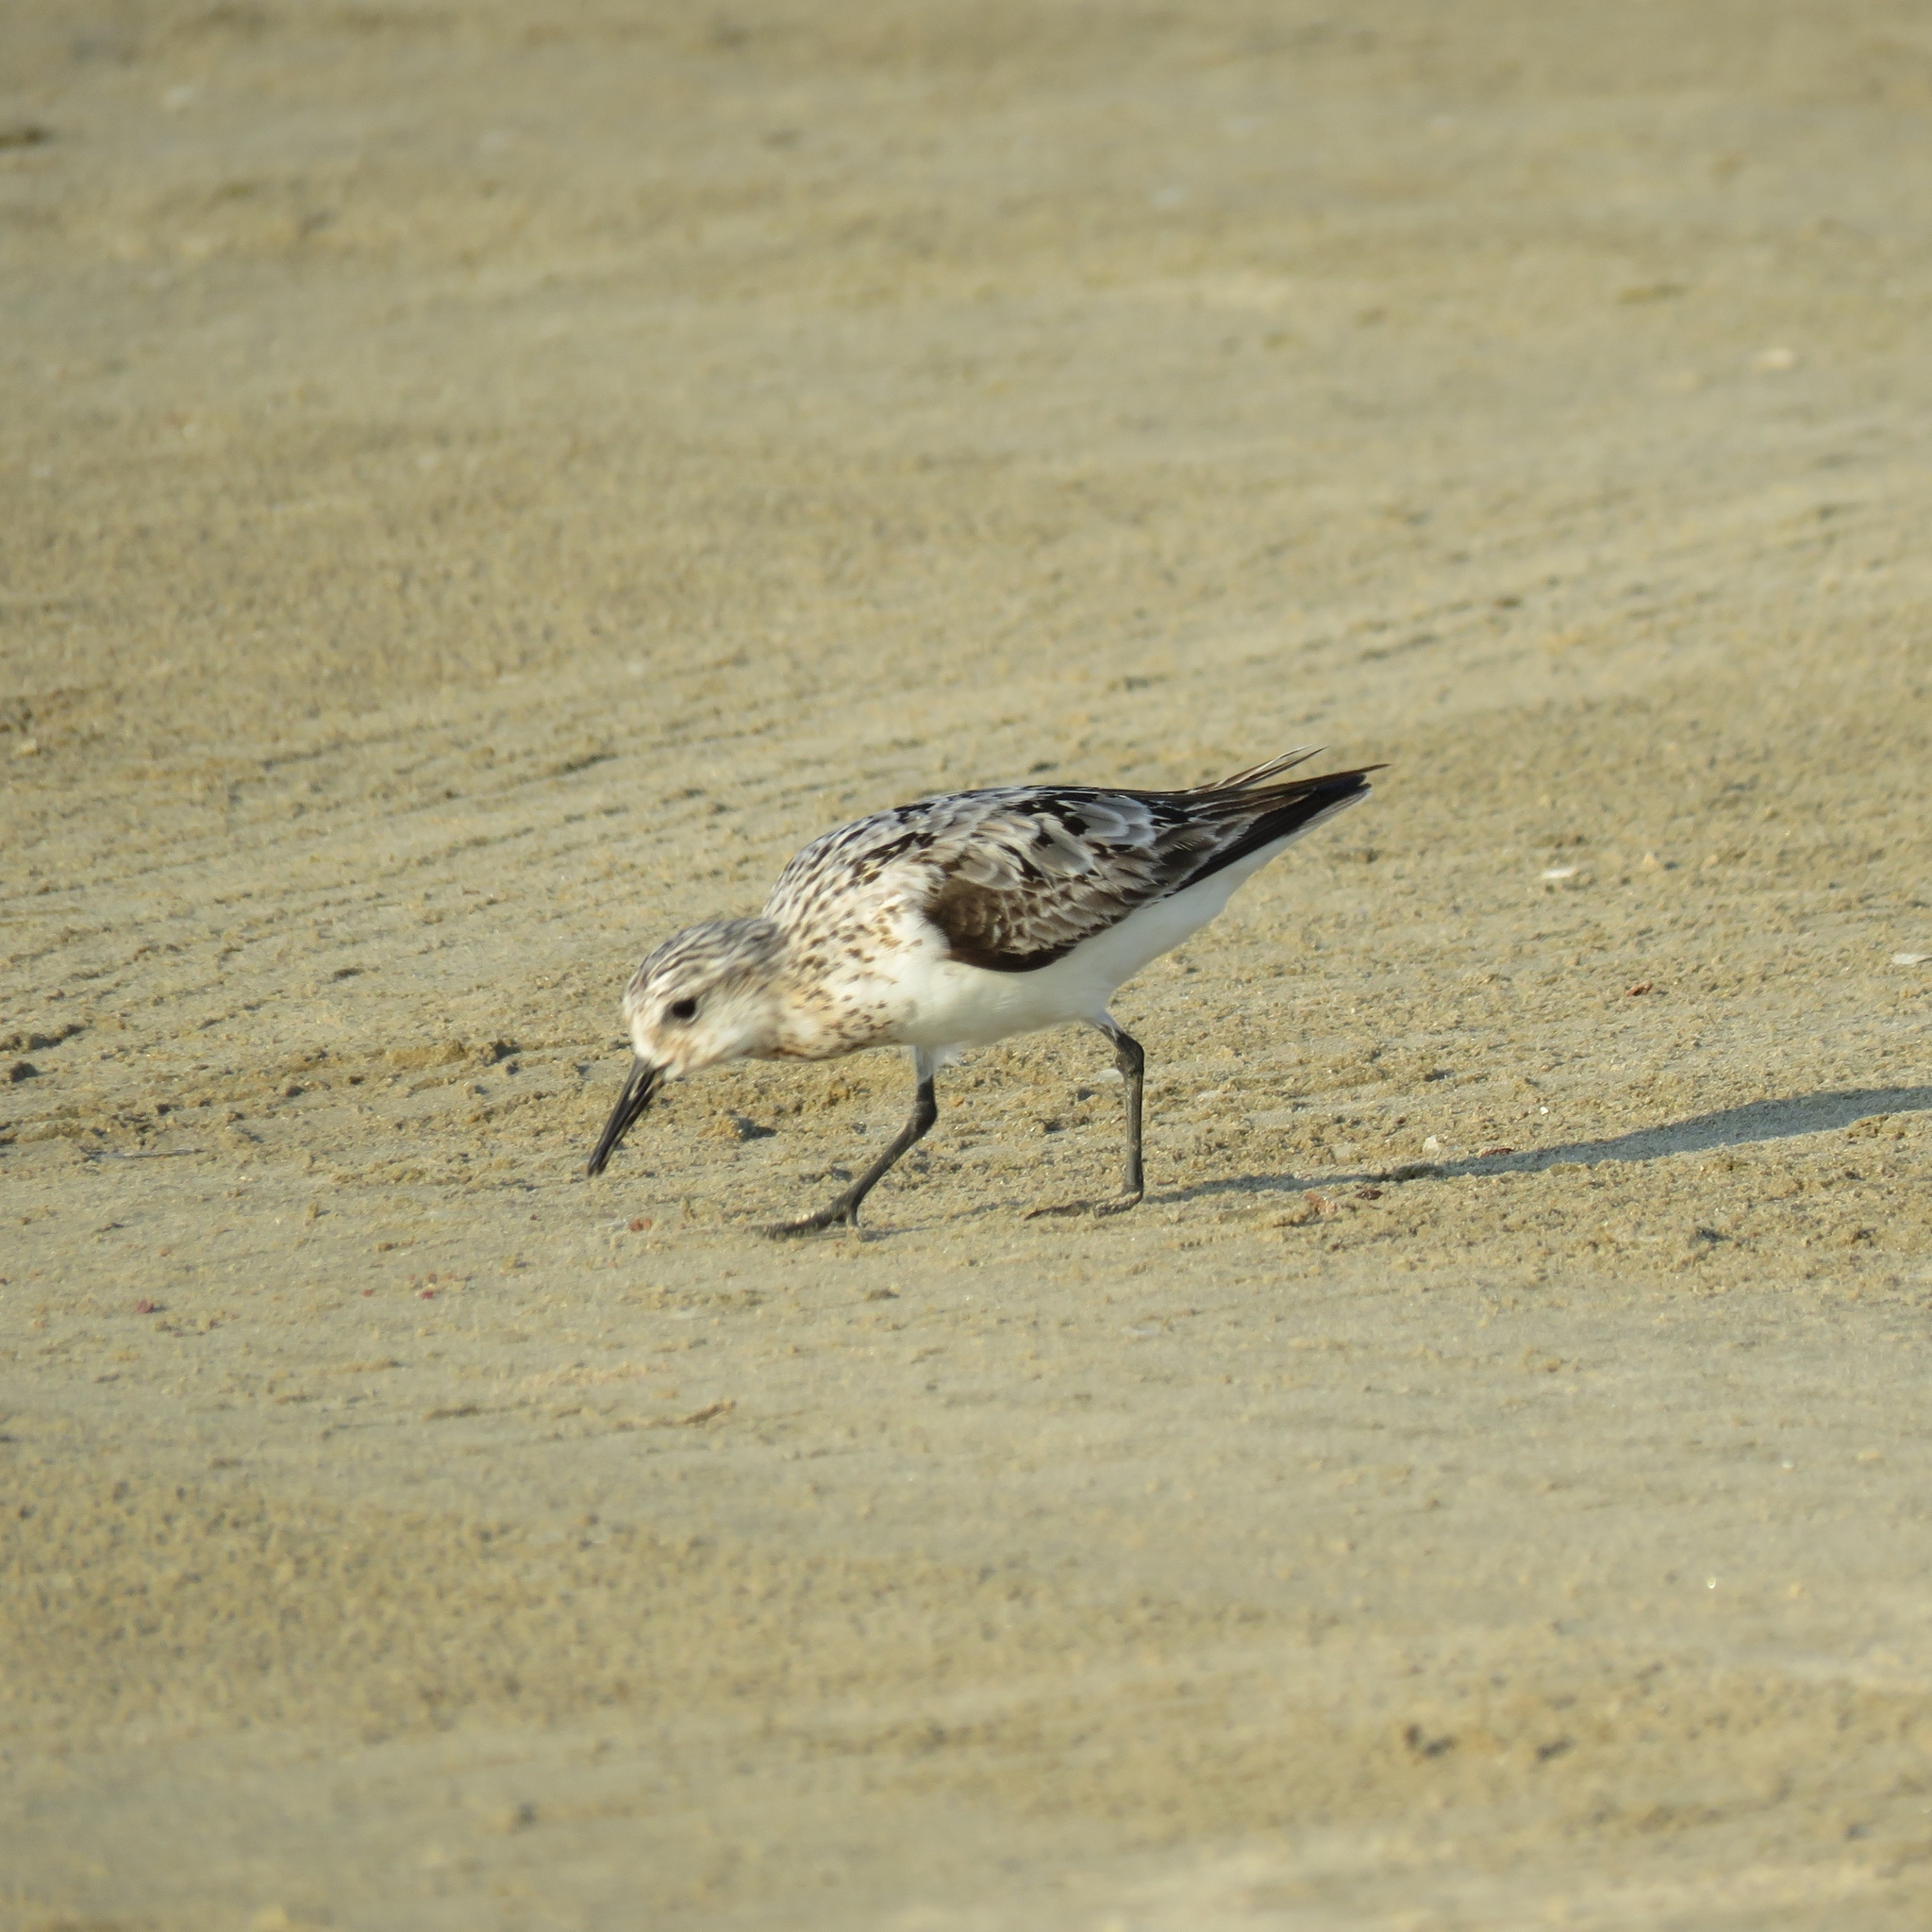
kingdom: Animalia
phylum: Chordata
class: Aves
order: Charadriiformes
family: Scolopacidae
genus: Calidris
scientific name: Calidris alba
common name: Sanderling
